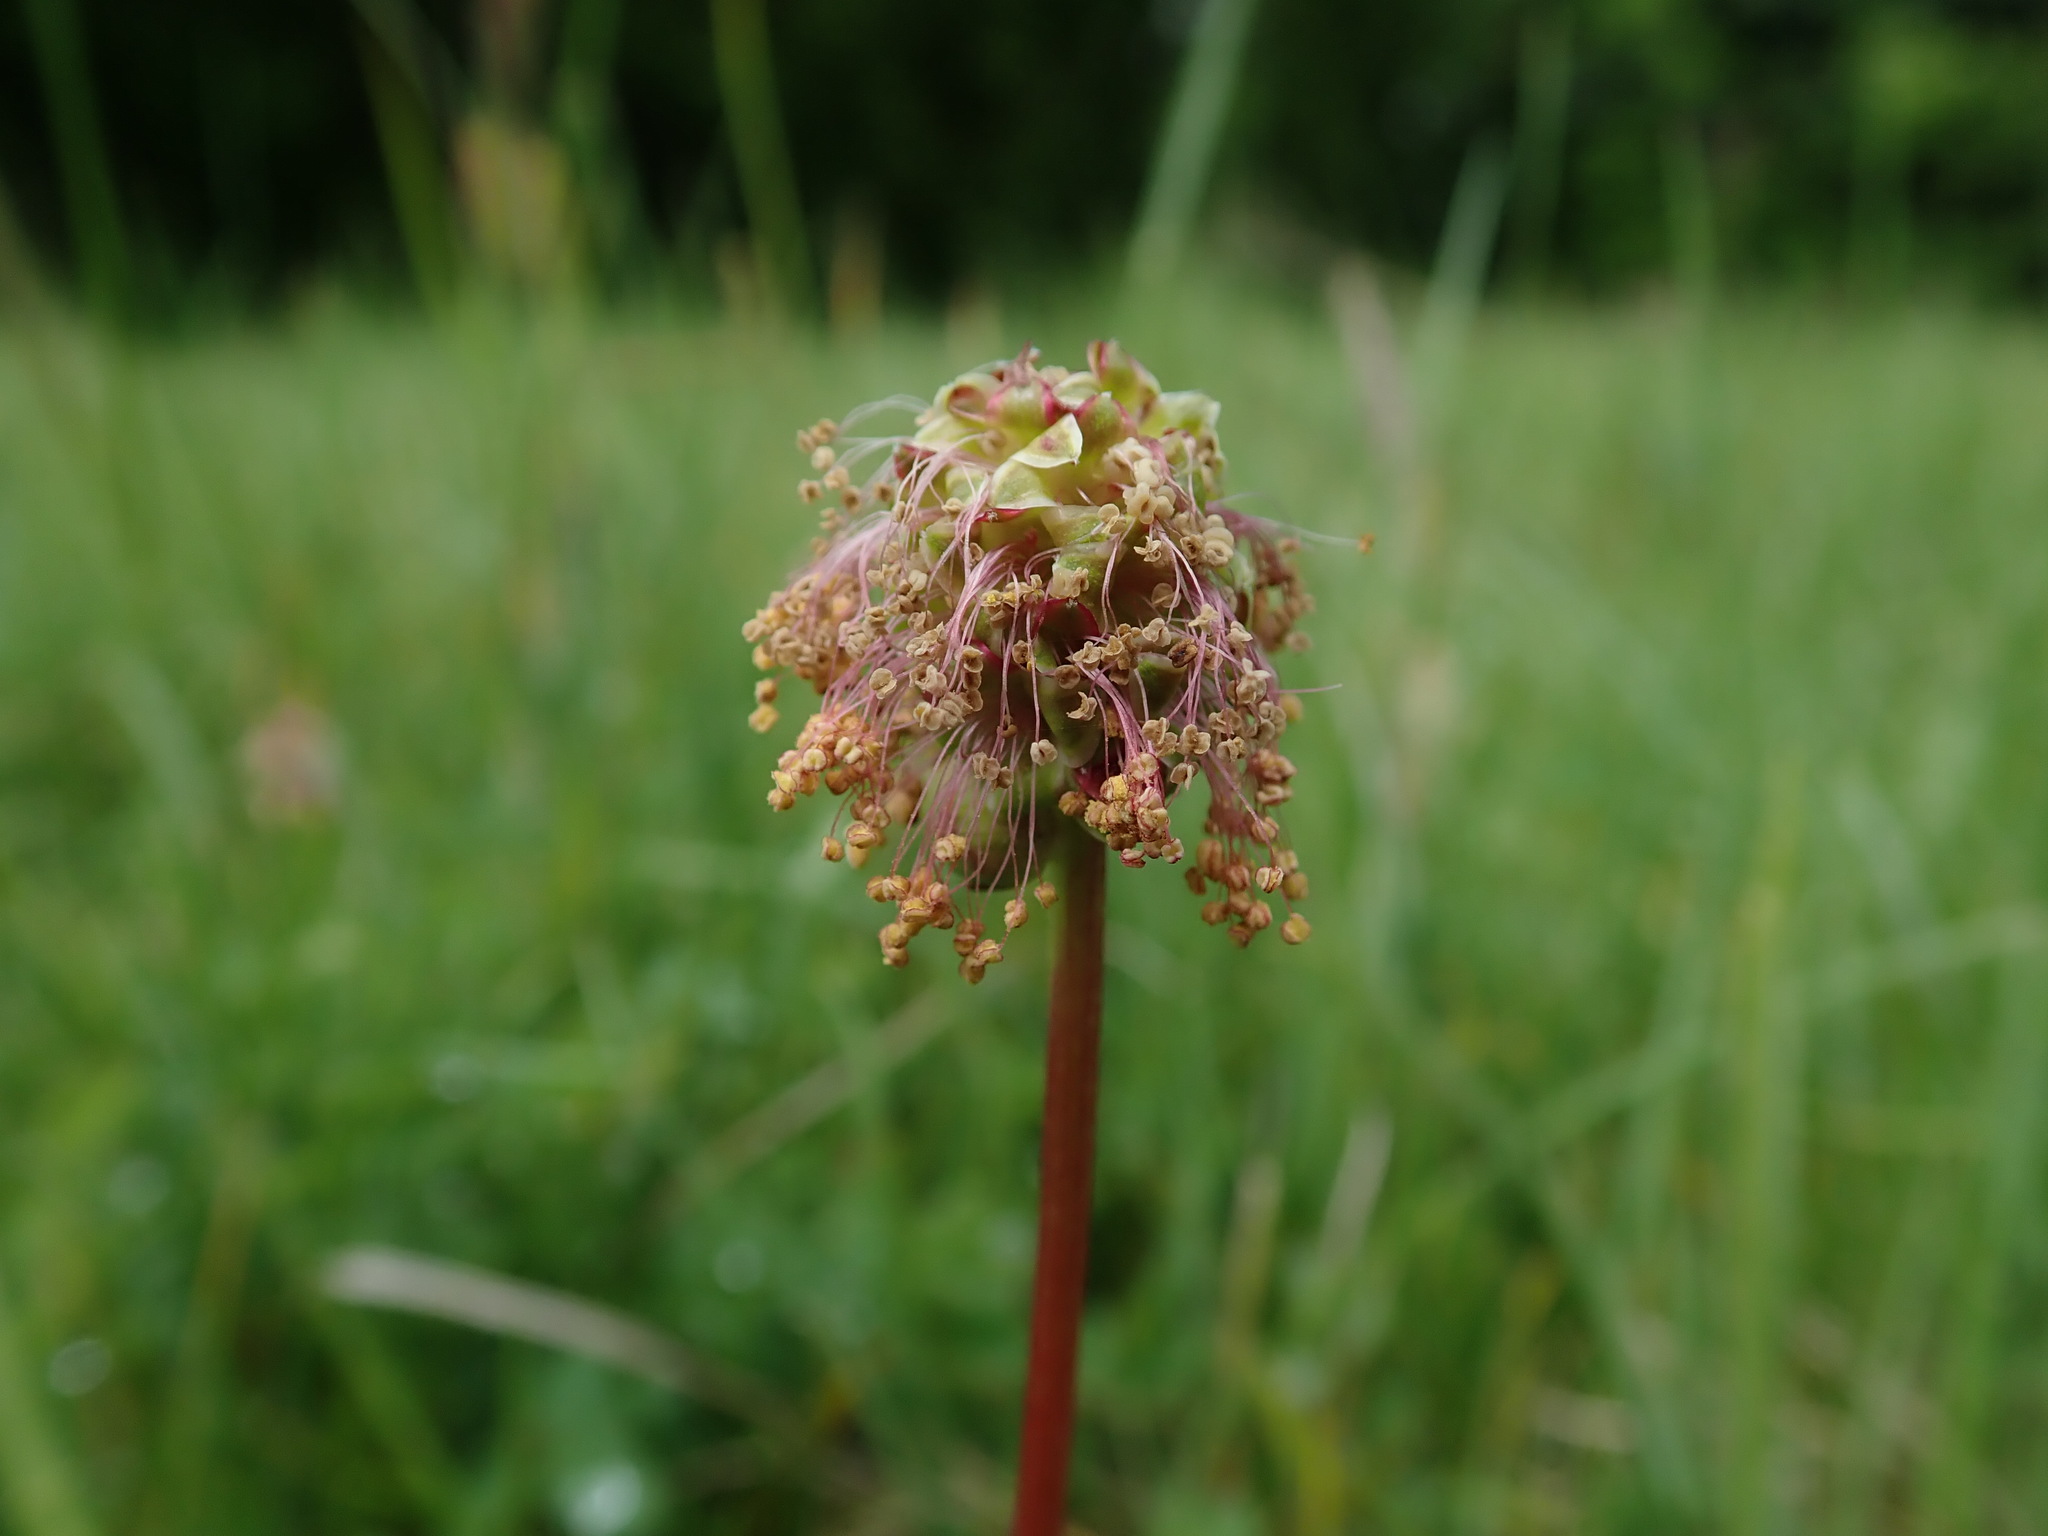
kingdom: Plantae
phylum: Tracheophyta
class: Magnoliopsida
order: Rosales
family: Rosaceae
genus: Poterium
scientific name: Poterium sanguisorba
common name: Salad burnet
